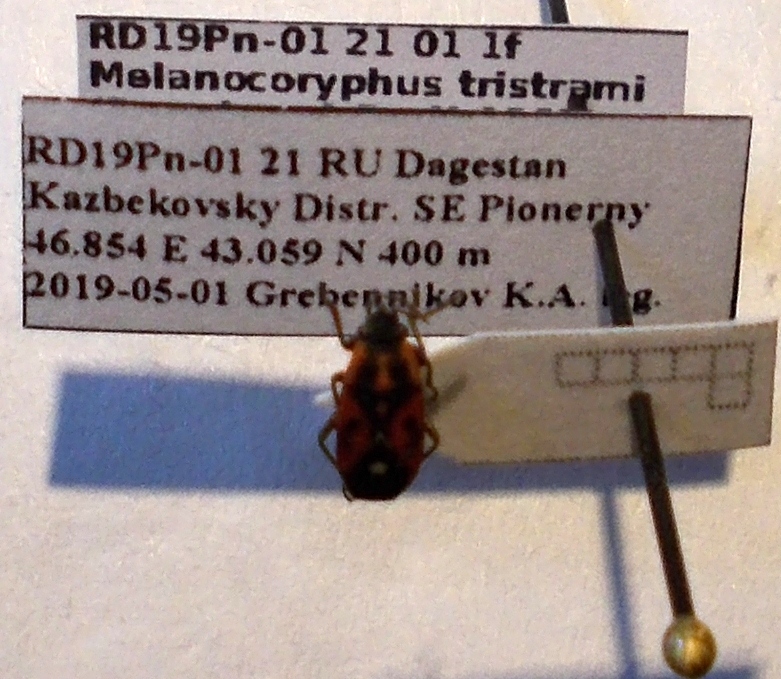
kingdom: Animalia
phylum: Arthropoda
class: Insecta
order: Hemiptera
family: Lygaeidae
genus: Melanocoryphus
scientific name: Melanocoryphus tristrami
